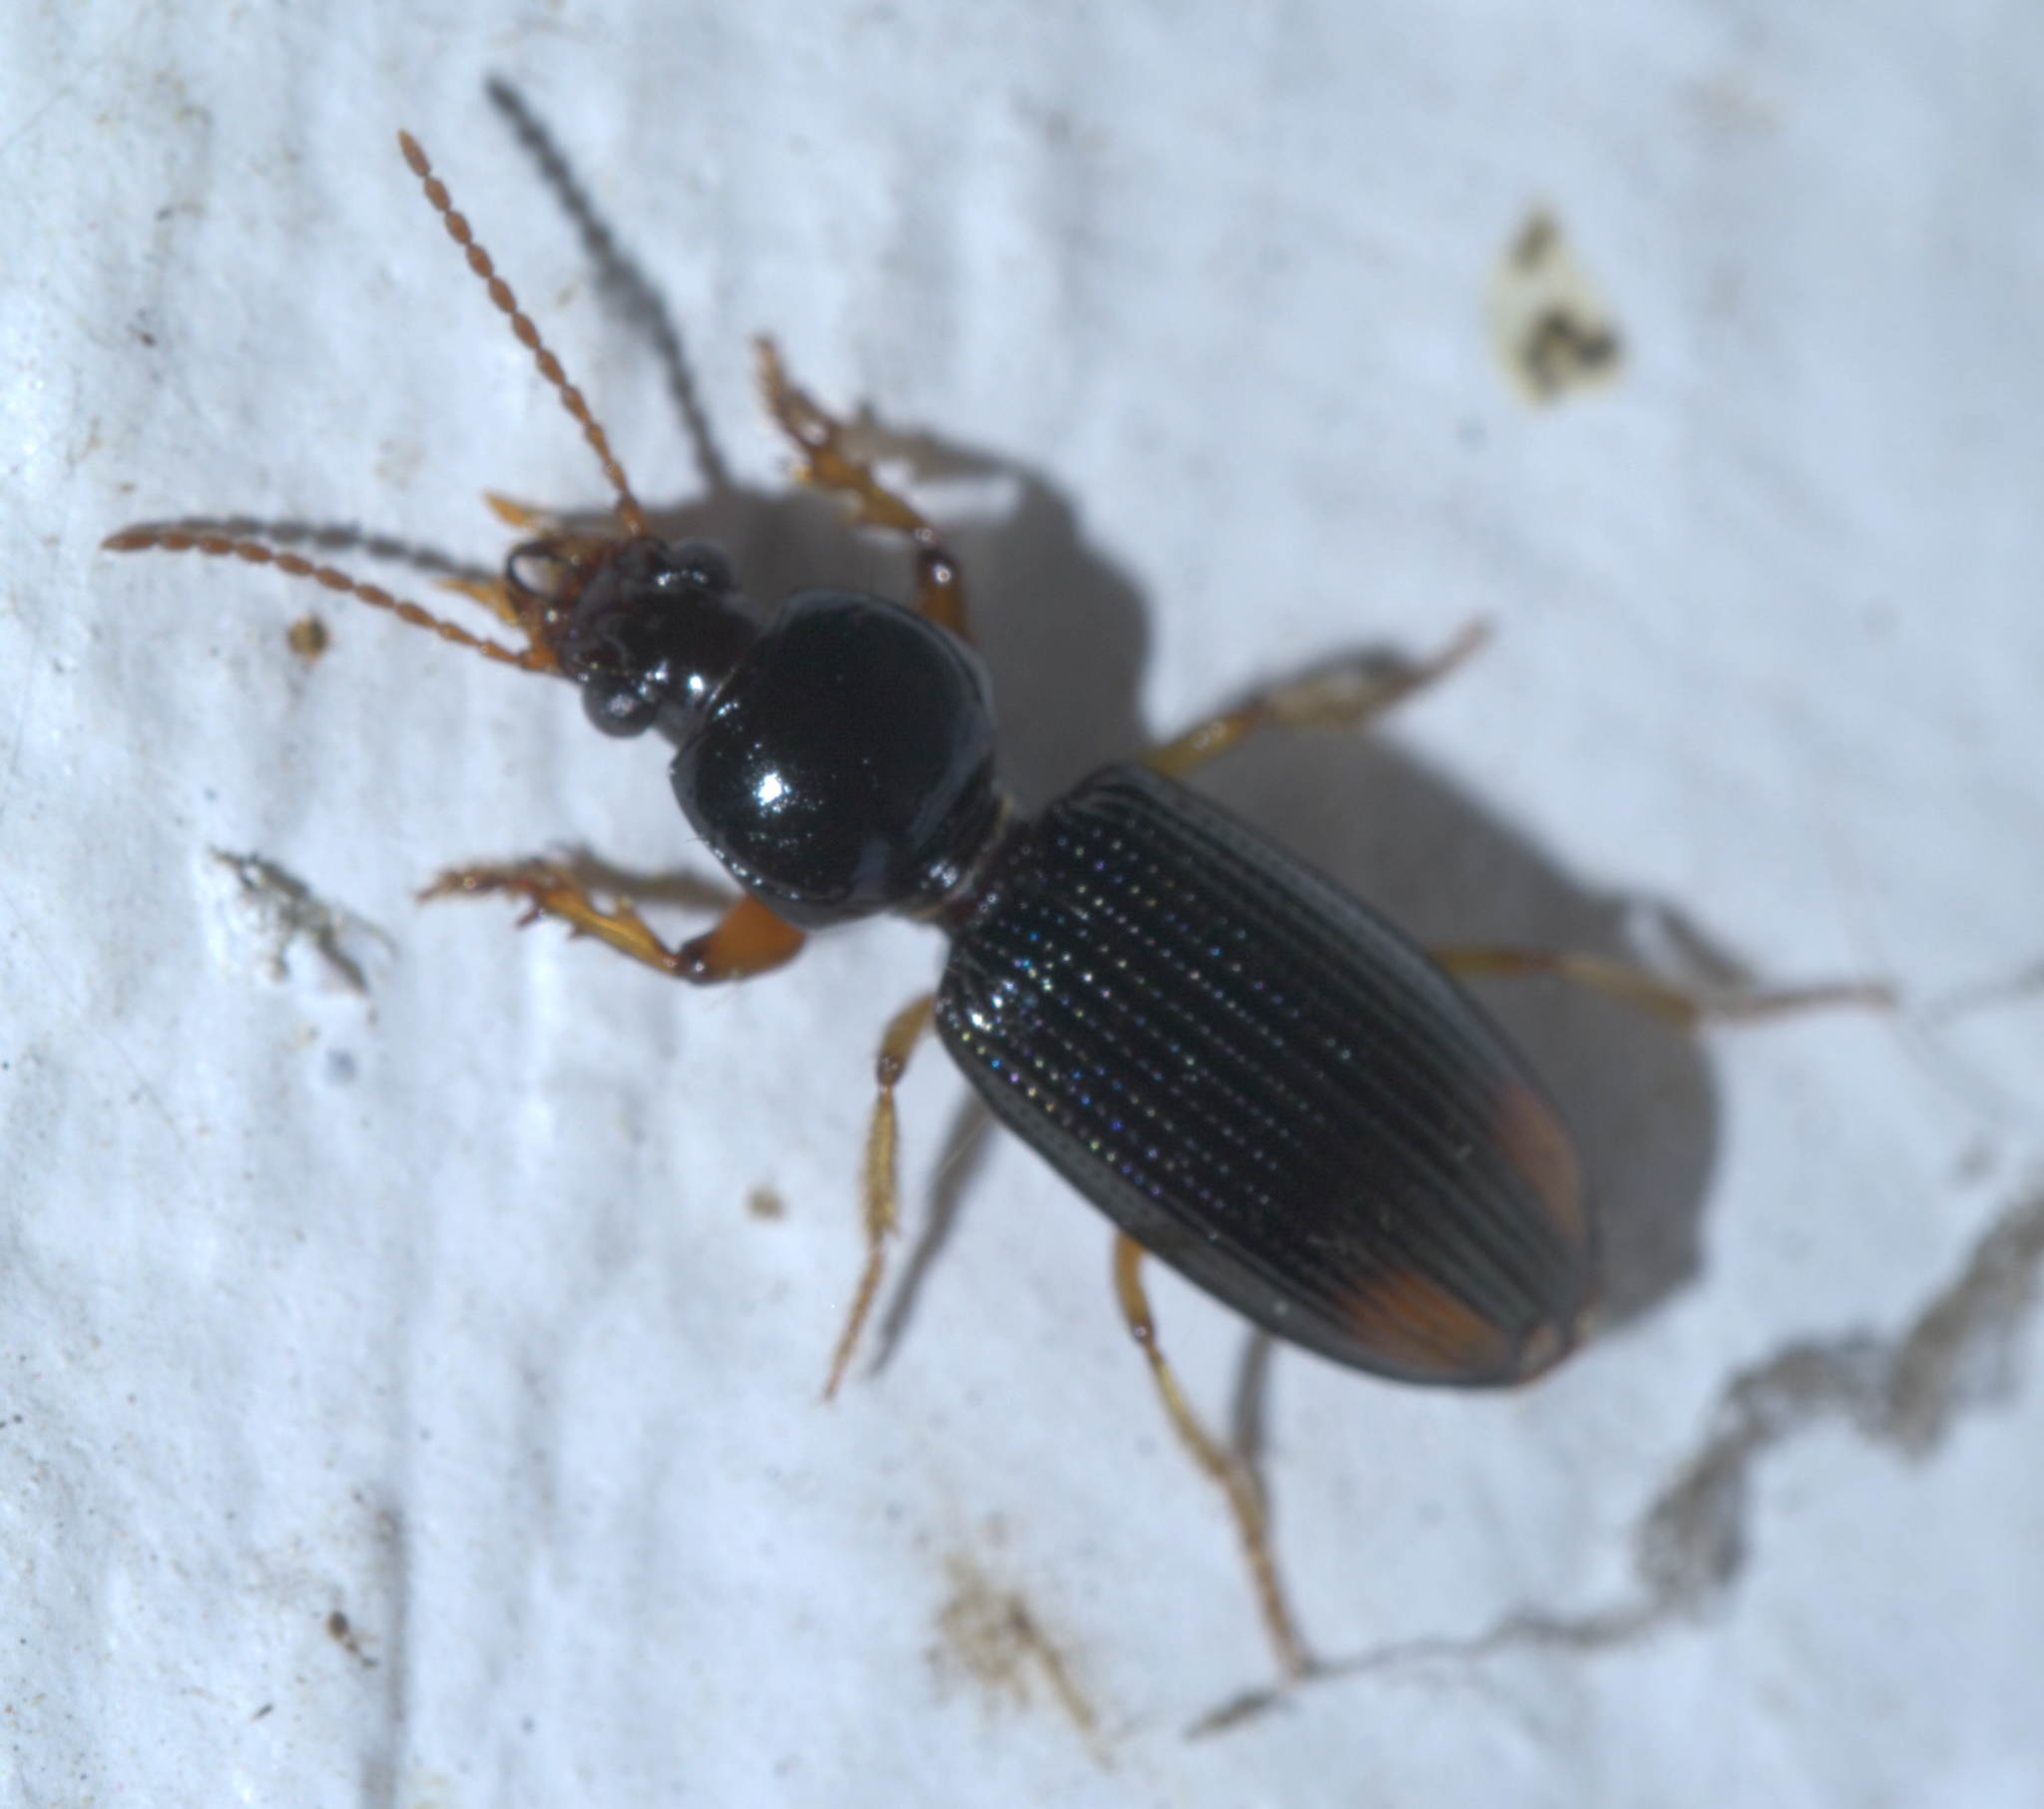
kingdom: Animalia
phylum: Arthropoda
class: Insecta
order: Coleoptera
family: Carabidae
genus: Aspidoglossa
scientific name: Aspidoglossa subangulata
